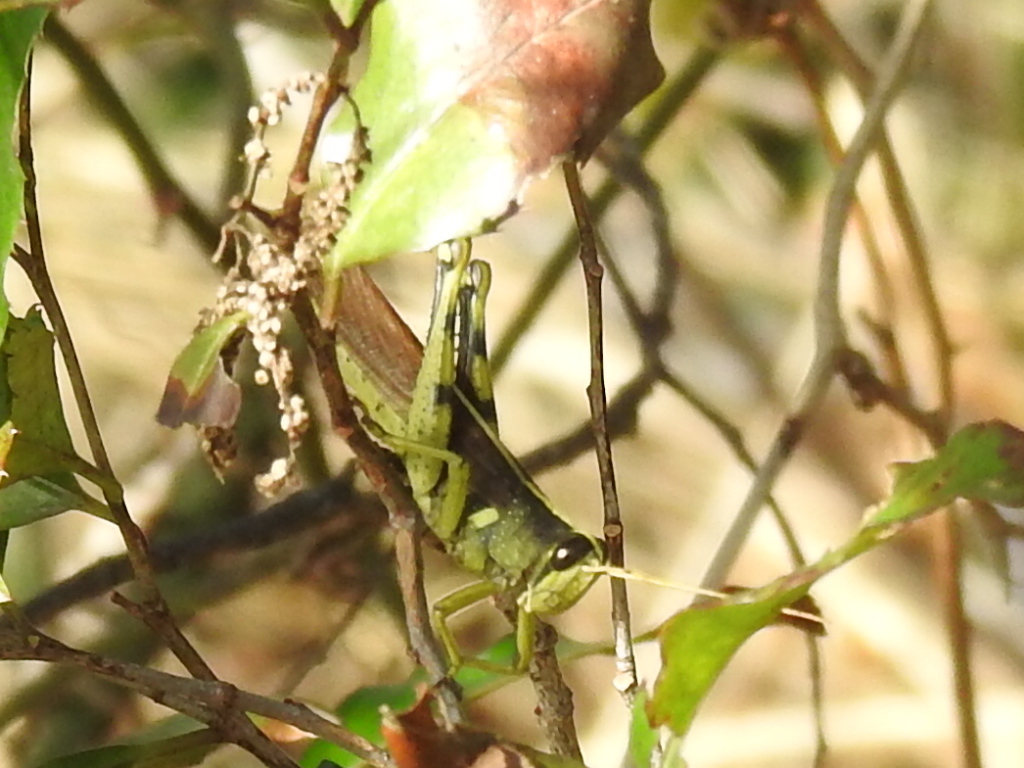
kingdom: Animalia
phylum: Arthropoda
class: Insecta
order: Orthoptera
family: Acrididae
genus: Schistocerca
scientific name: Schistocerca obscura
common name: Obscure bird grasshopper
